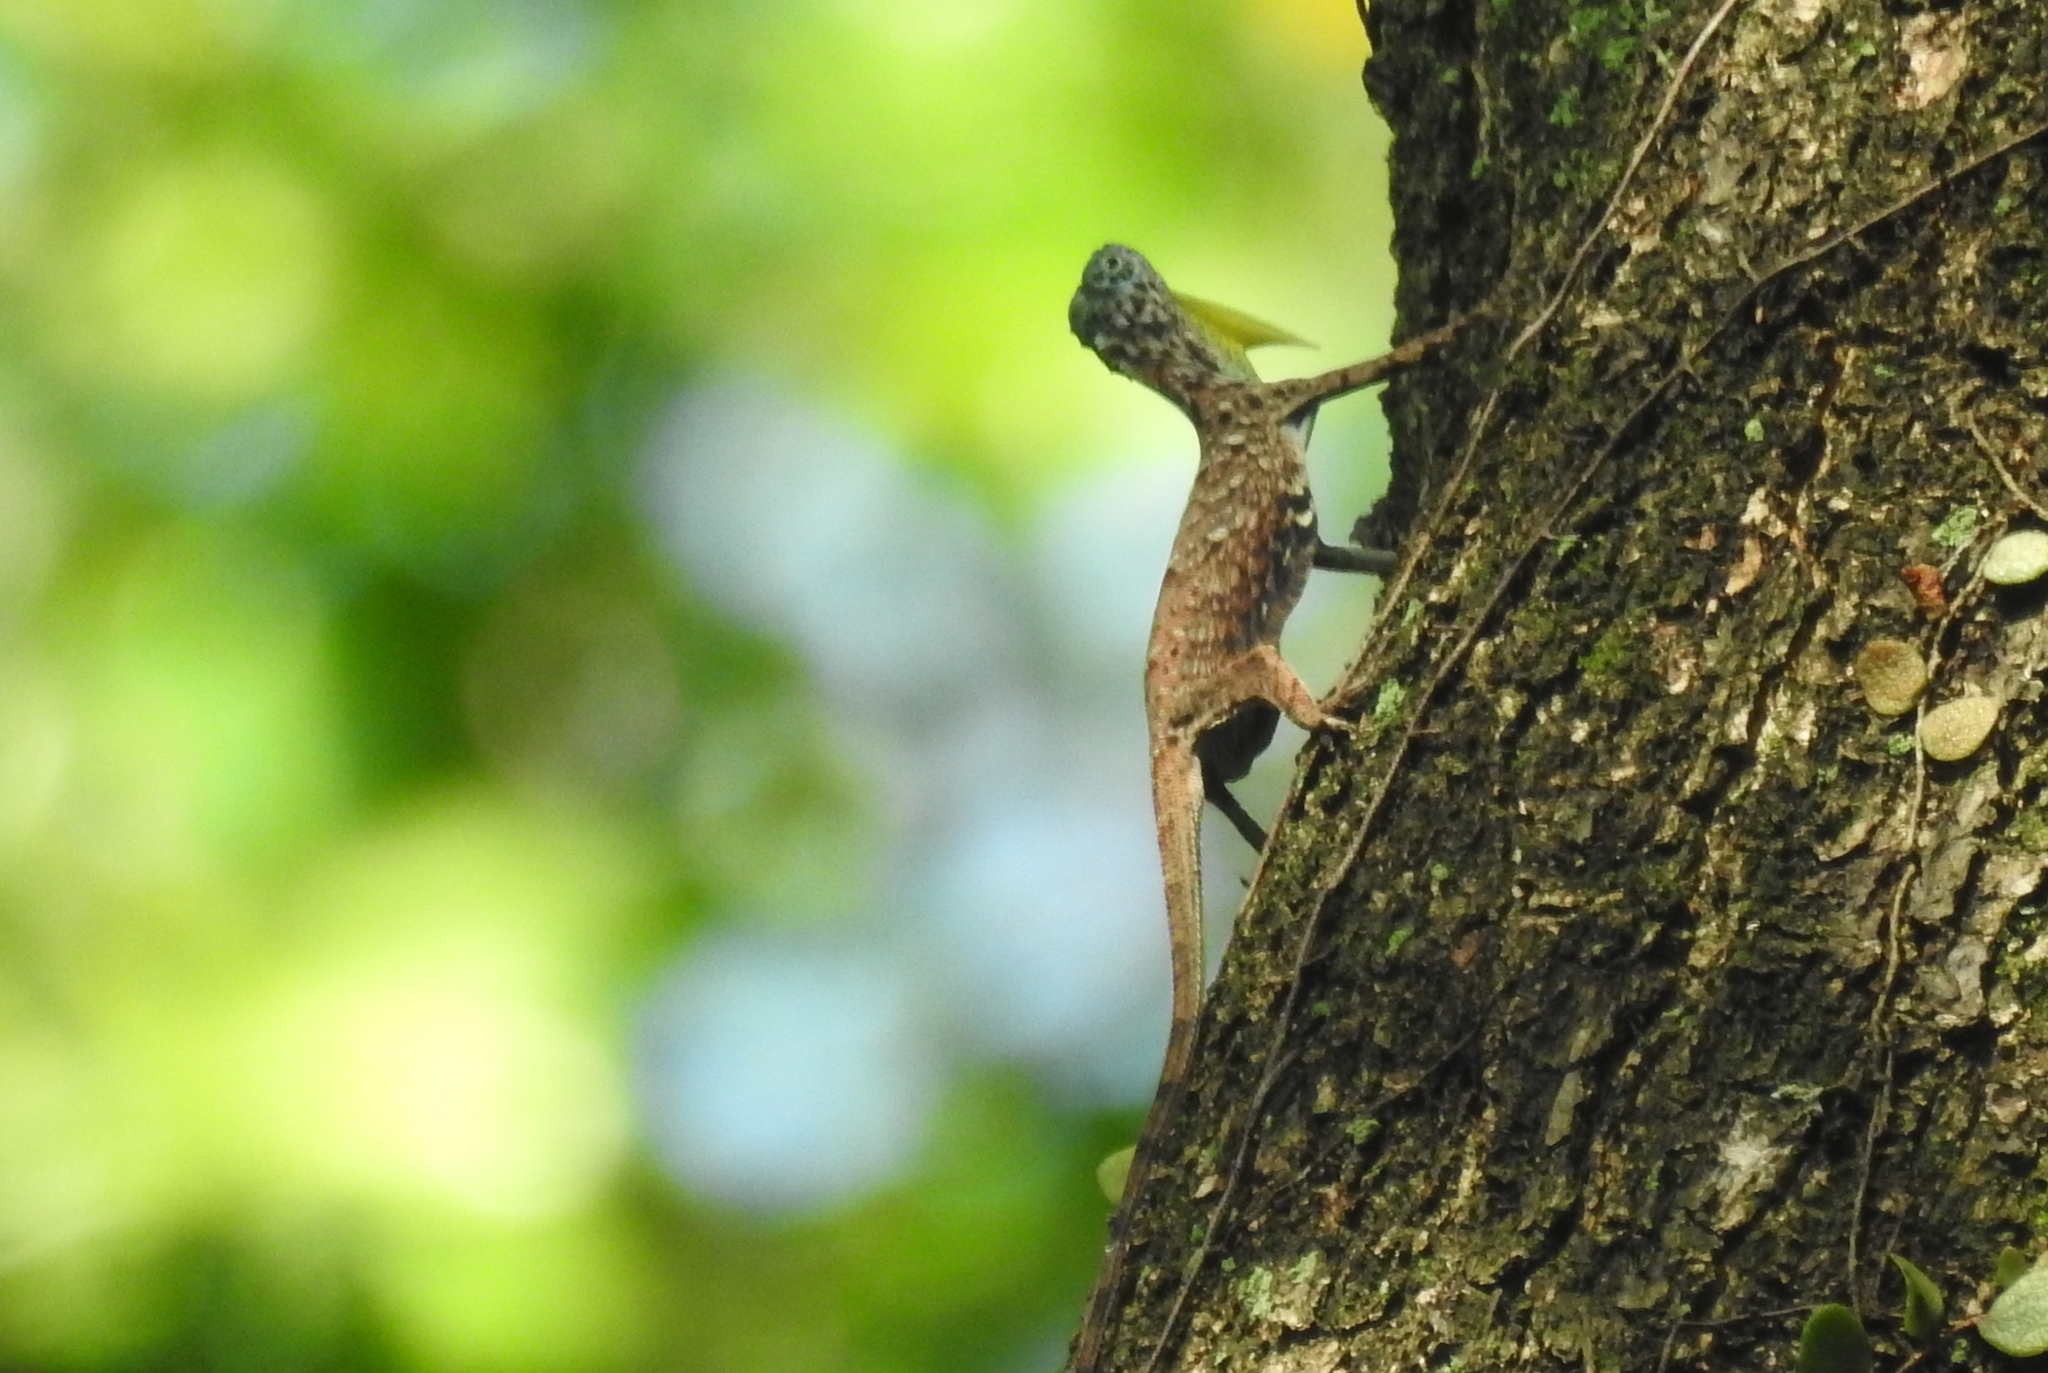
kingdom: Animalia
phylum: Chordata
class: Squamata
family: Agamidae
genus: Draco
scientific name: Draco sumatranus
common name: Common gliding lizard
